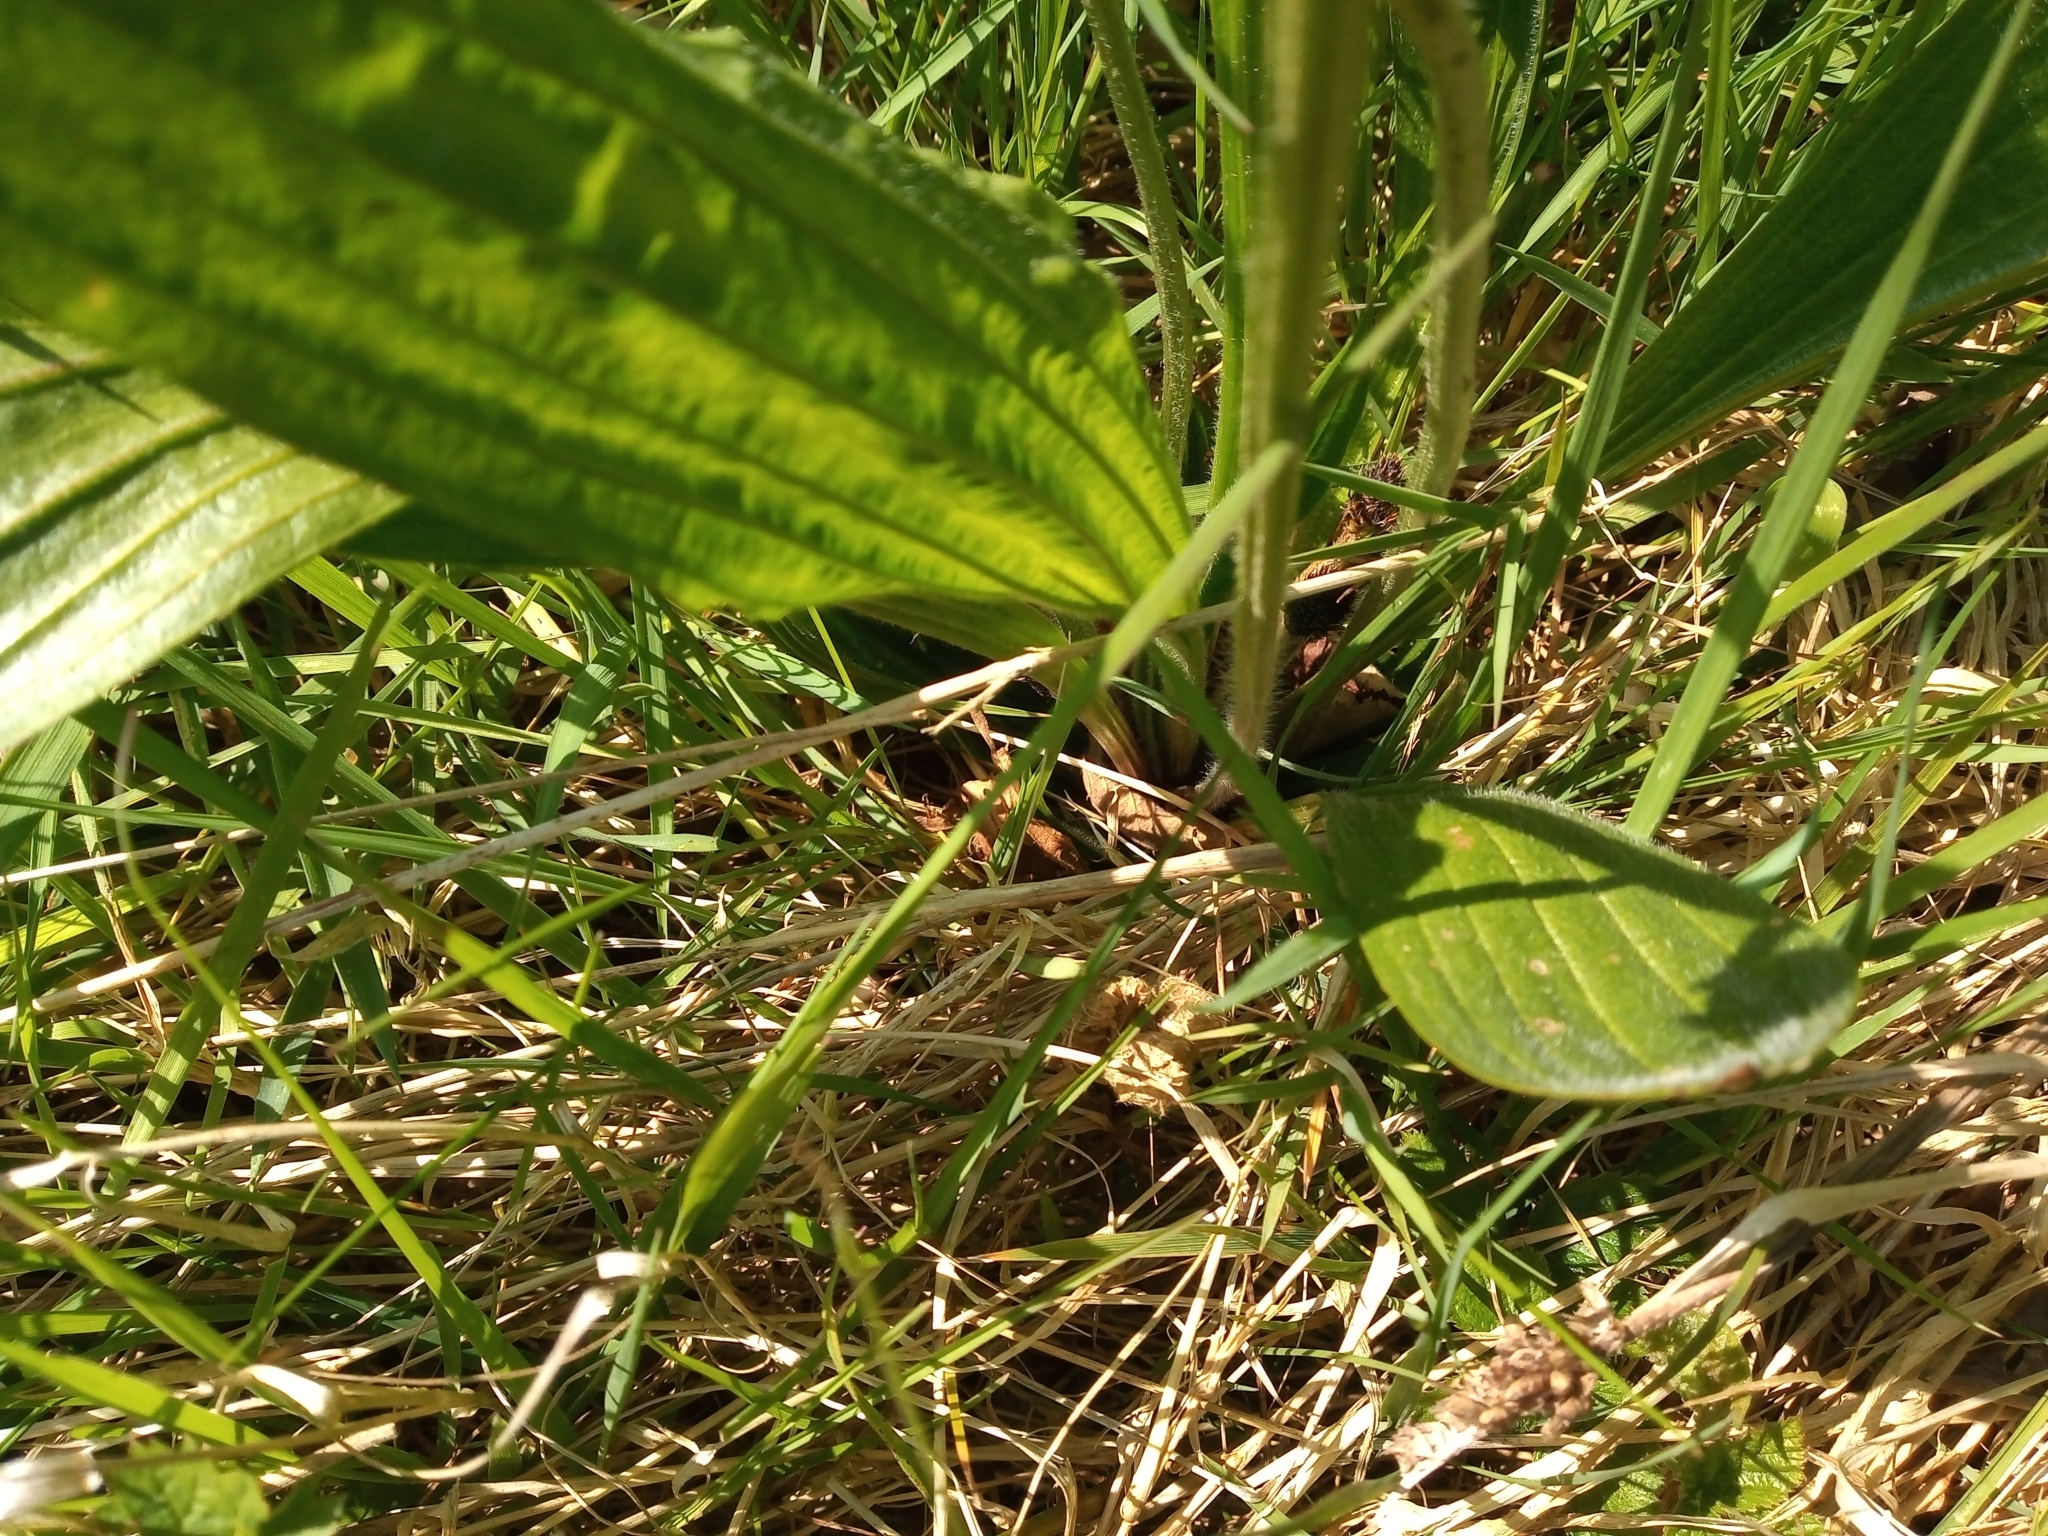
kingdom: Plantae
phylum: Tracheophyta
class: Magnoliopsida
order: Lamiales
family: Plantaginaceae
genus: Plantago
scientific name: Plantago lanceolata
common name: Ribwort plantain
